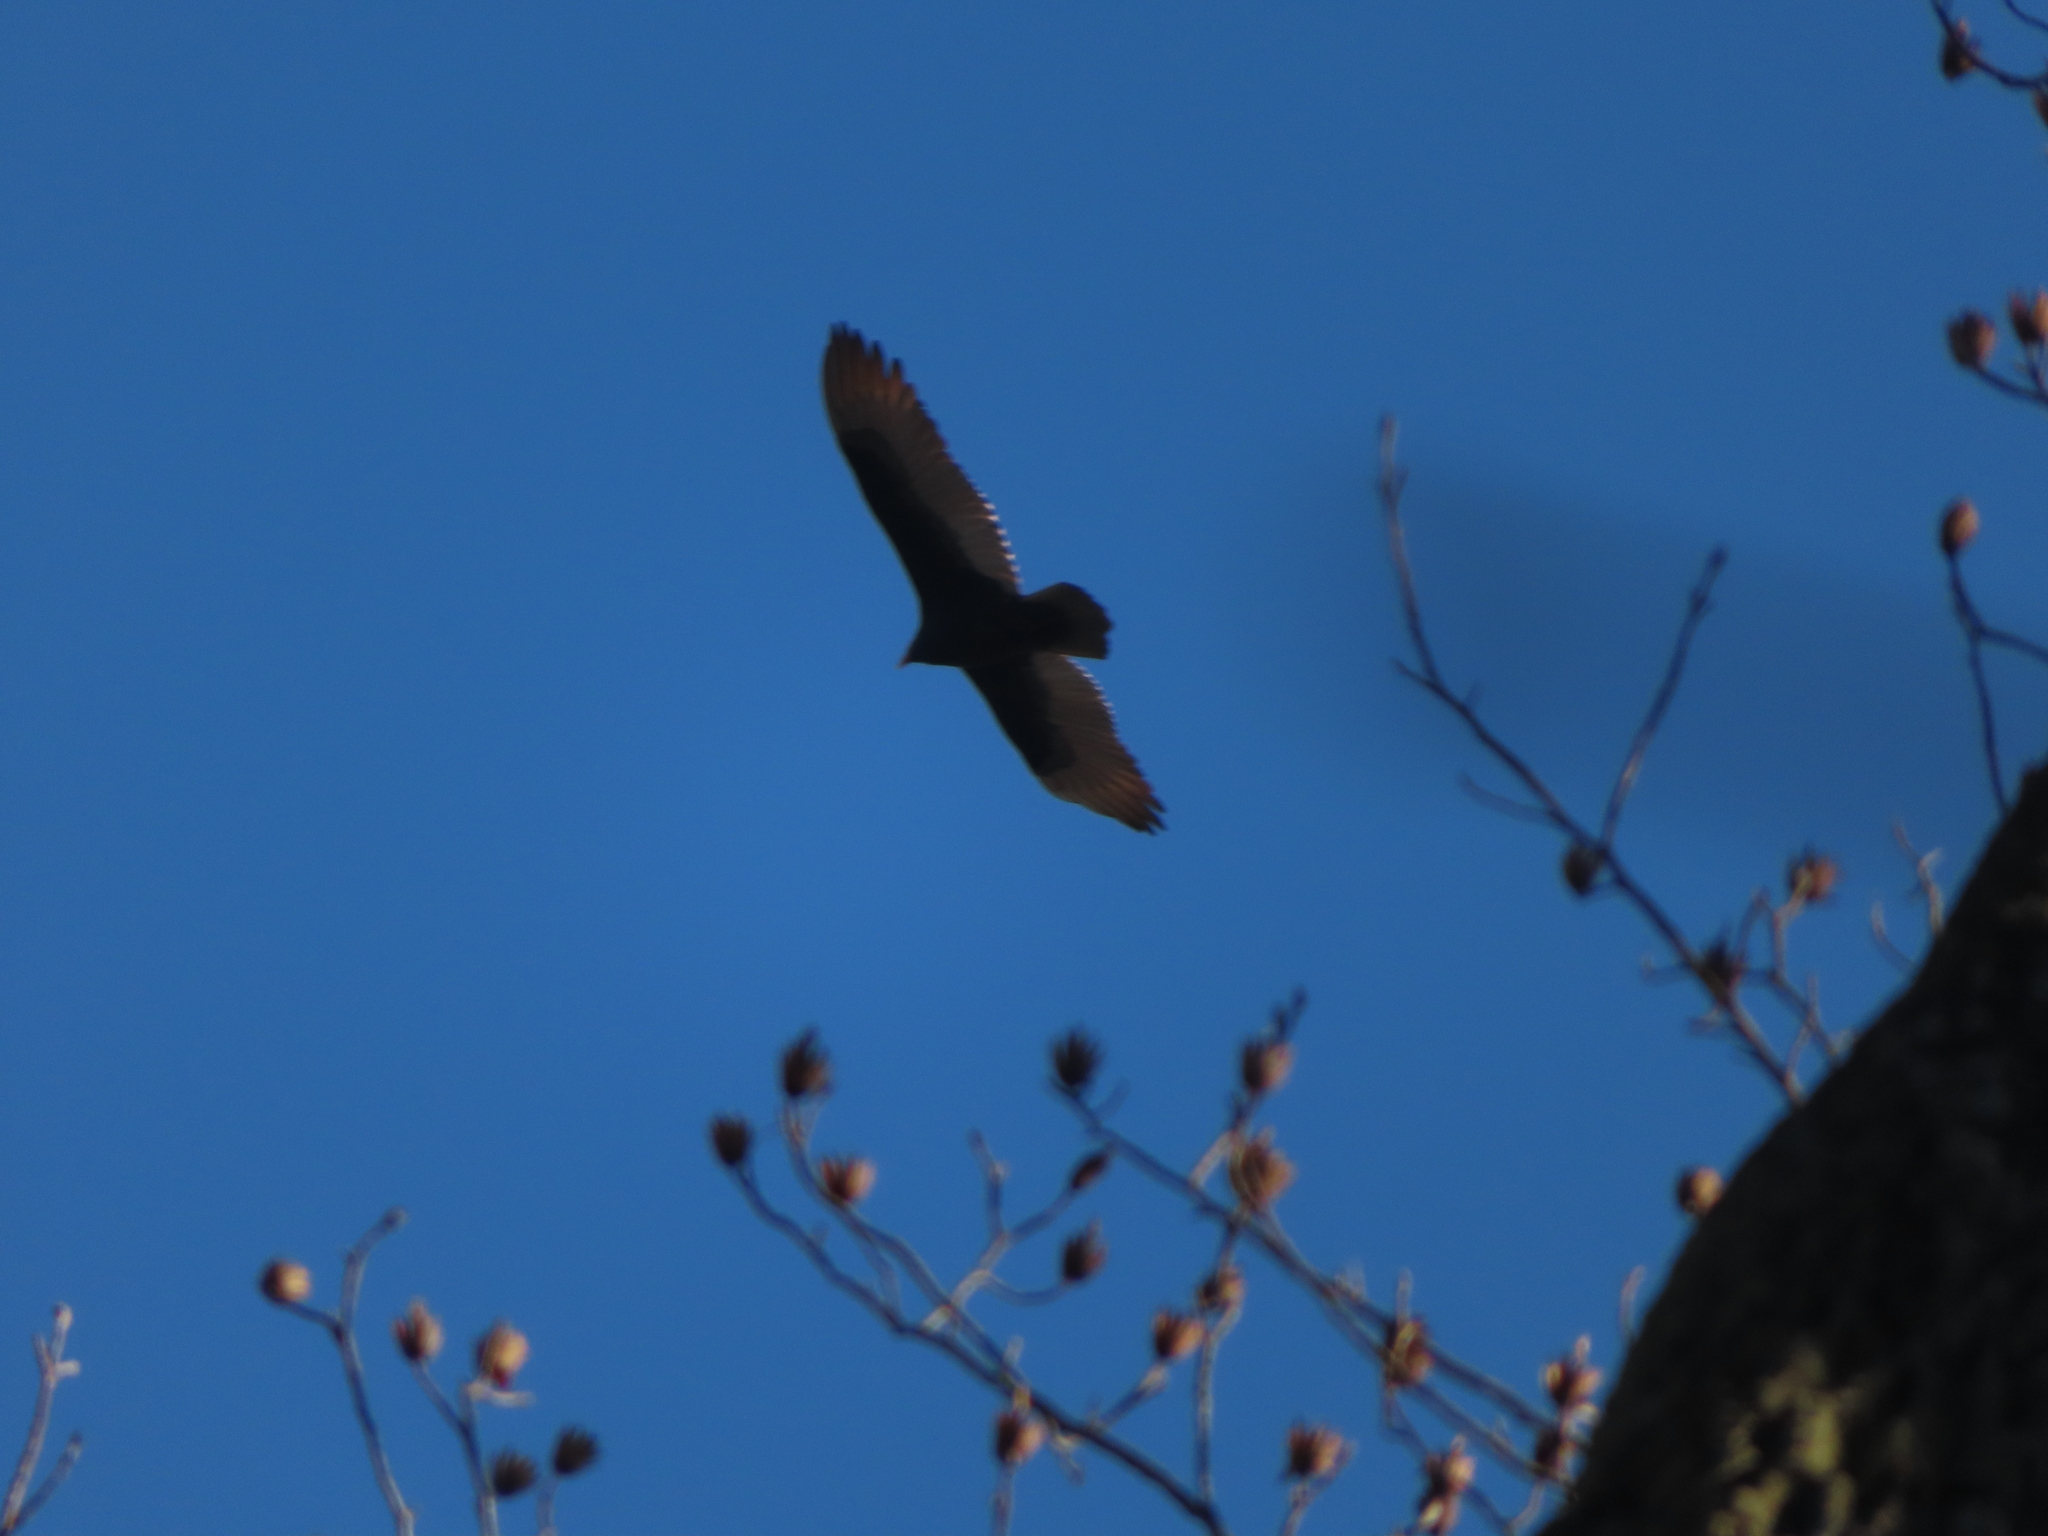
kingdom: Animalia
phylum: Chordata
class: Aves
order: Accipitriformes
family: Cathartidae
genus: Cathartes
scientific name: Cathartes aura
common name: Turkey vulture
